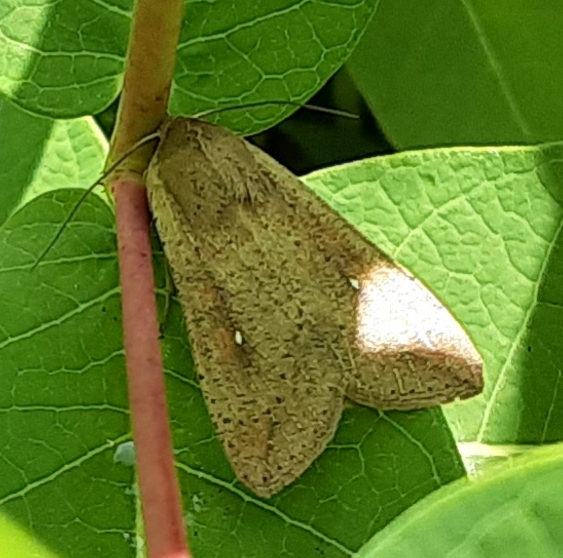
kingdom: Animalia
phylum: Arthropoda
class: Insecta
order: Lepidoptera
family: Noctuidae
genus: Mythimna
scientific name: Mythimna unipuncta
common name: White-speck
